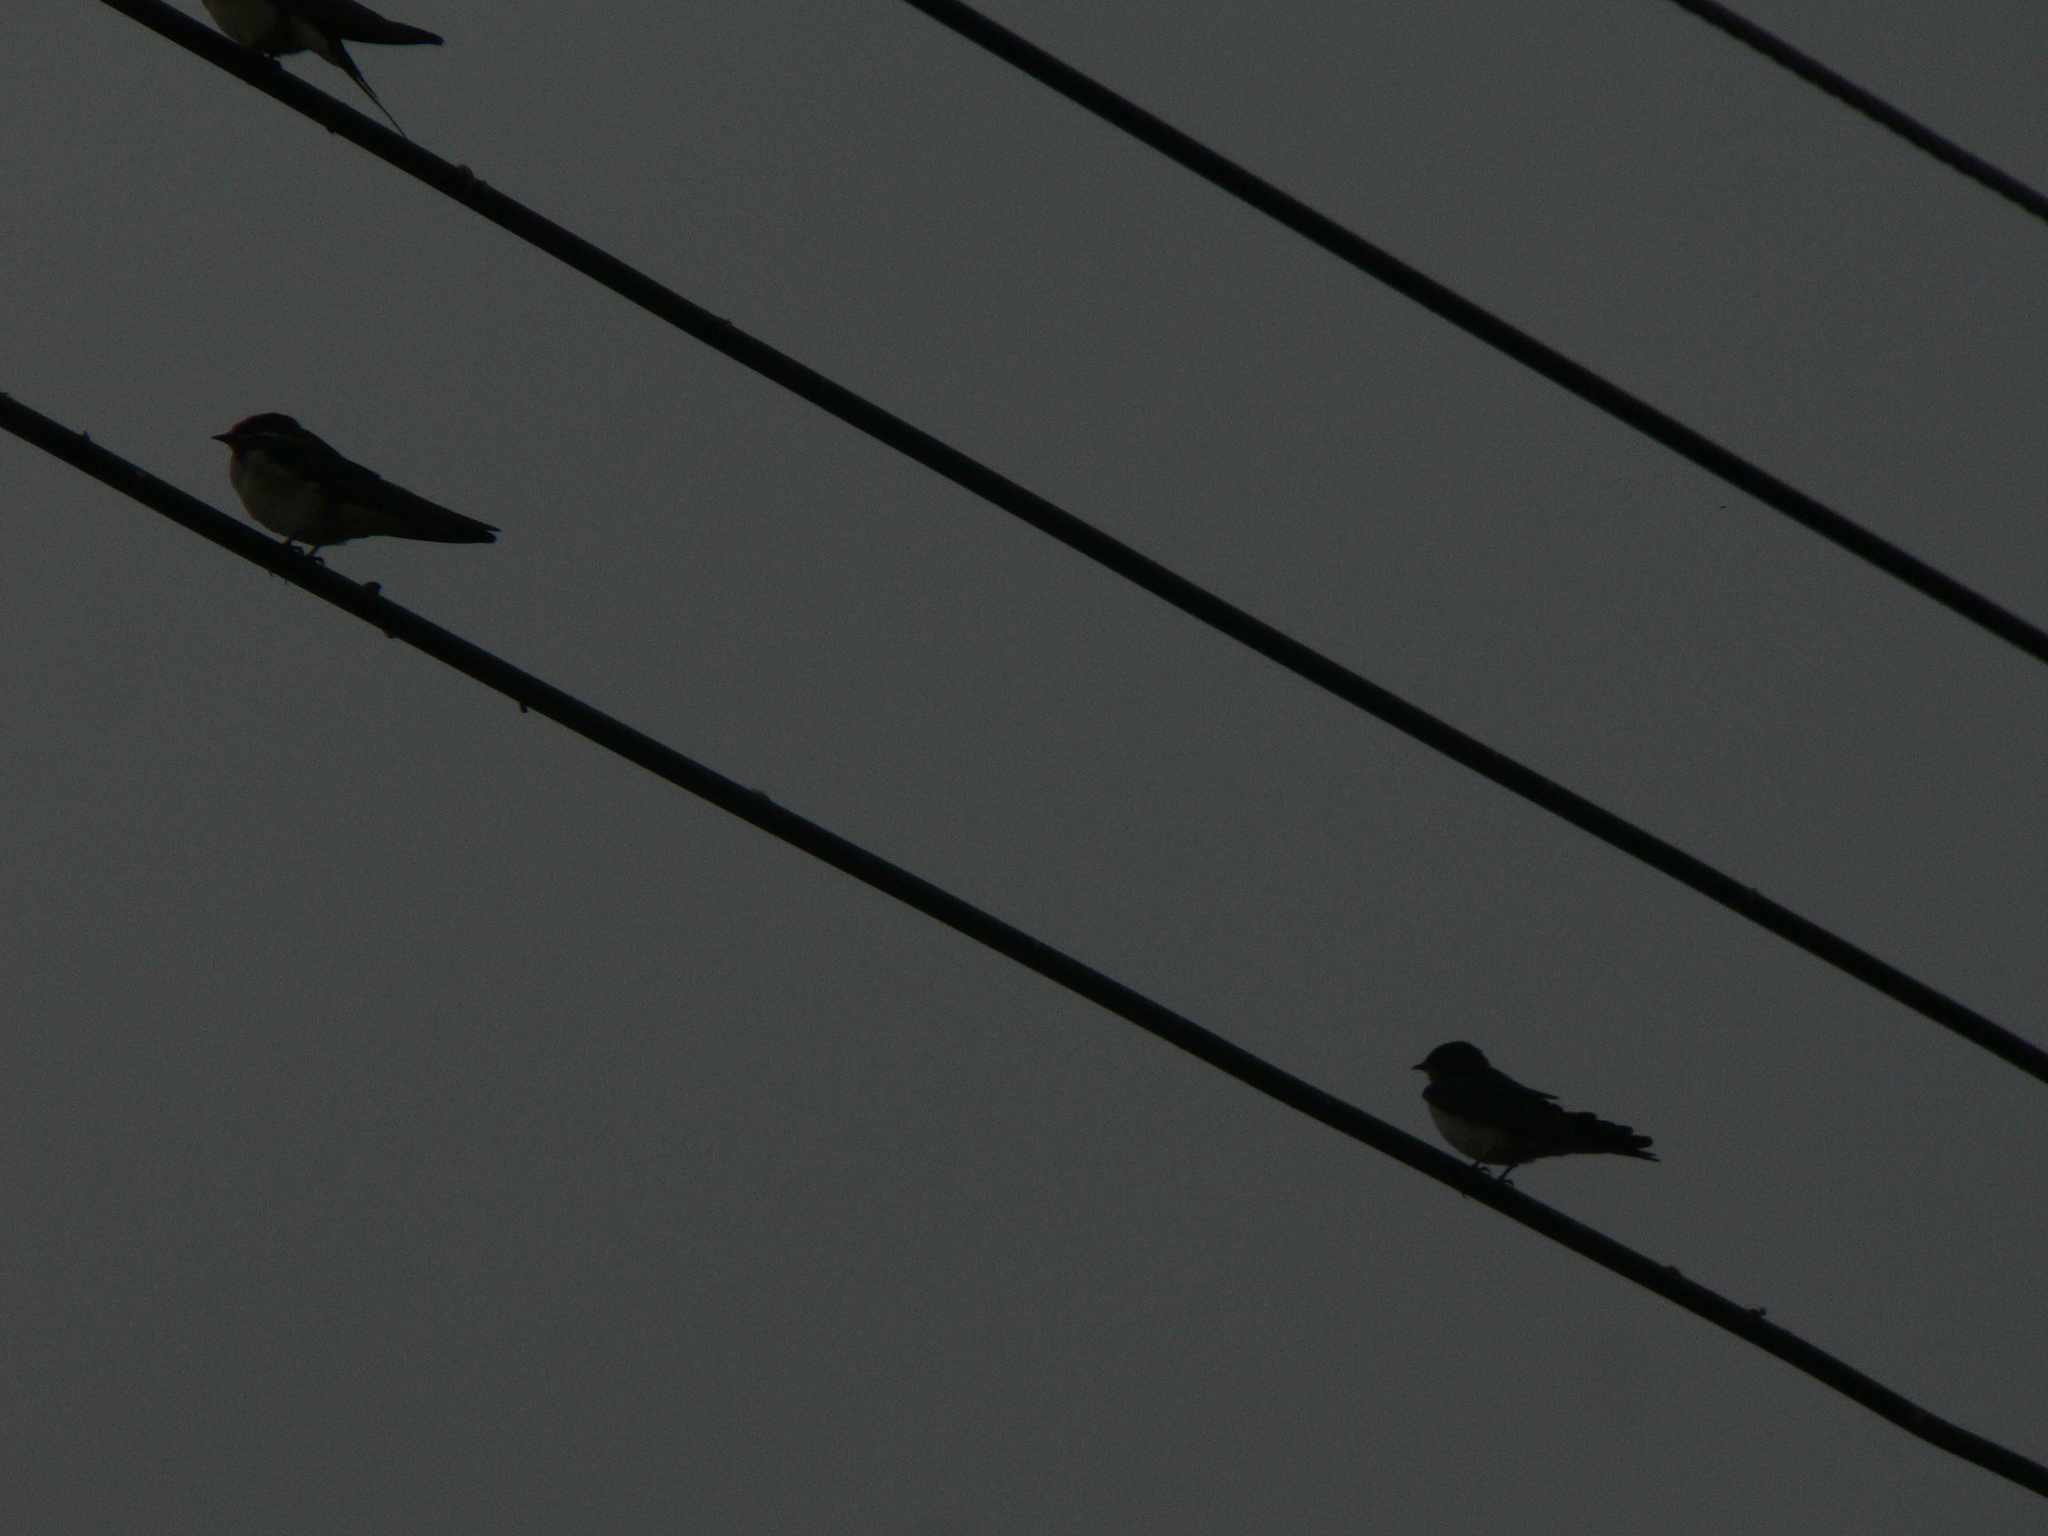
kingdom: Animalia
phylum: Chordata
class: Aves
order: Passeriformes
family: Hirundinidae
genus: Hirundo
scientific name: Hirundo rustica
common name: Barn swallow
